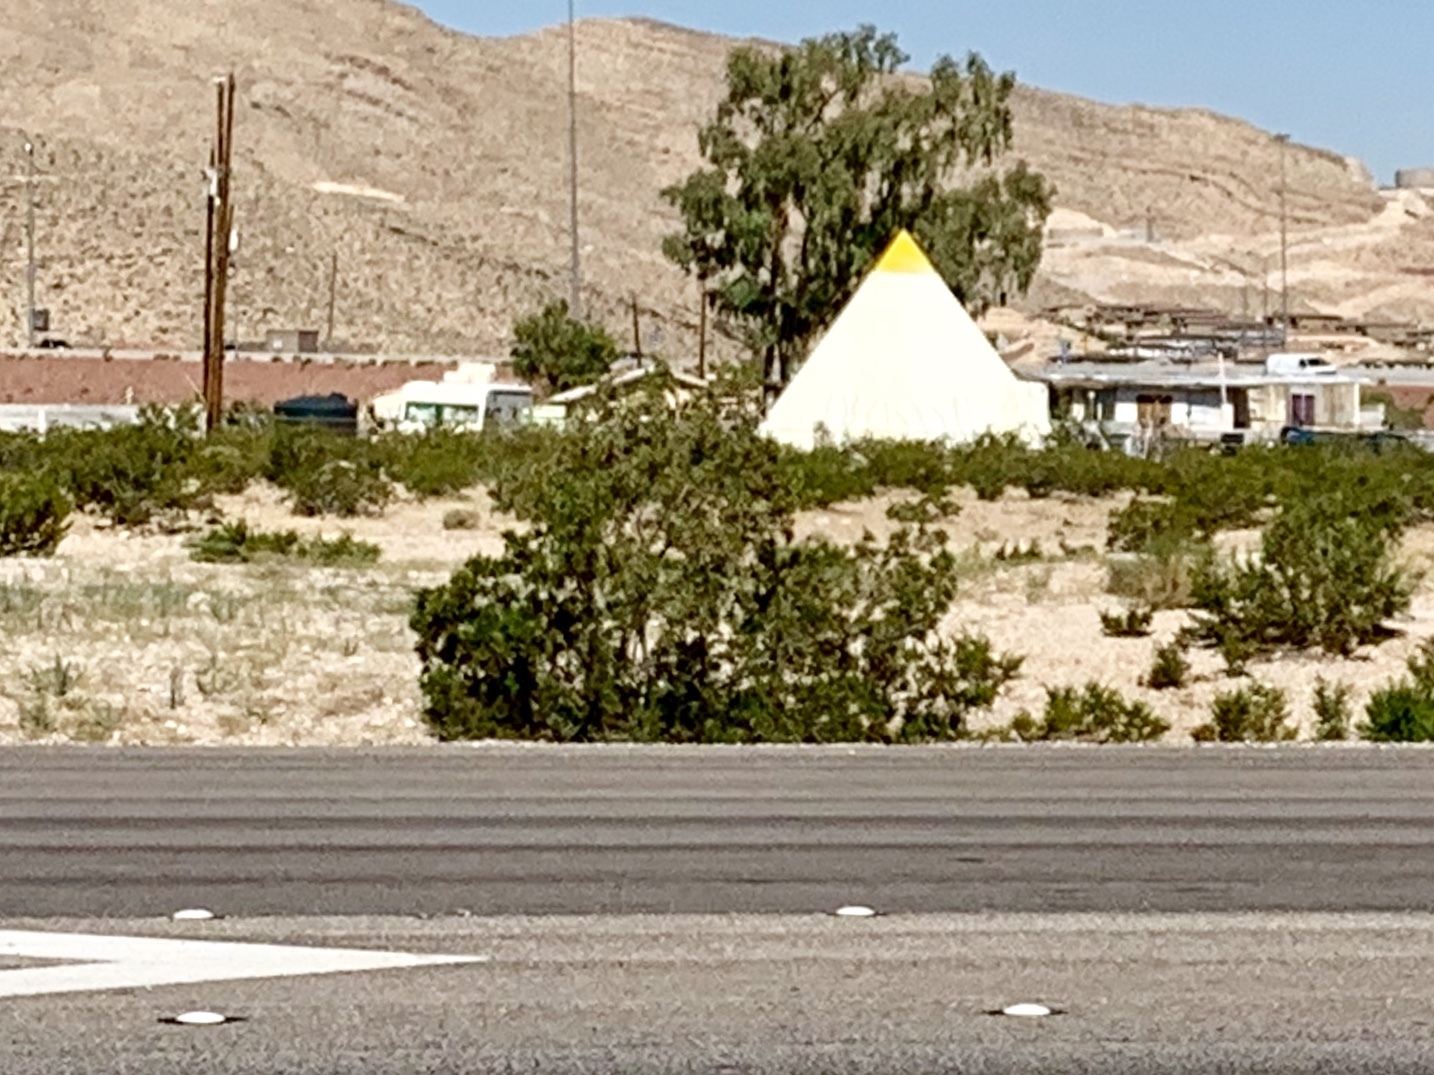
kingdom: Plantae
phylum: Tracheophyta
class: Magnoliopsida
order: Zygophyllales
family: Zygophyllaceae
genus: Larrea
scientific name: Larrea tridentata
